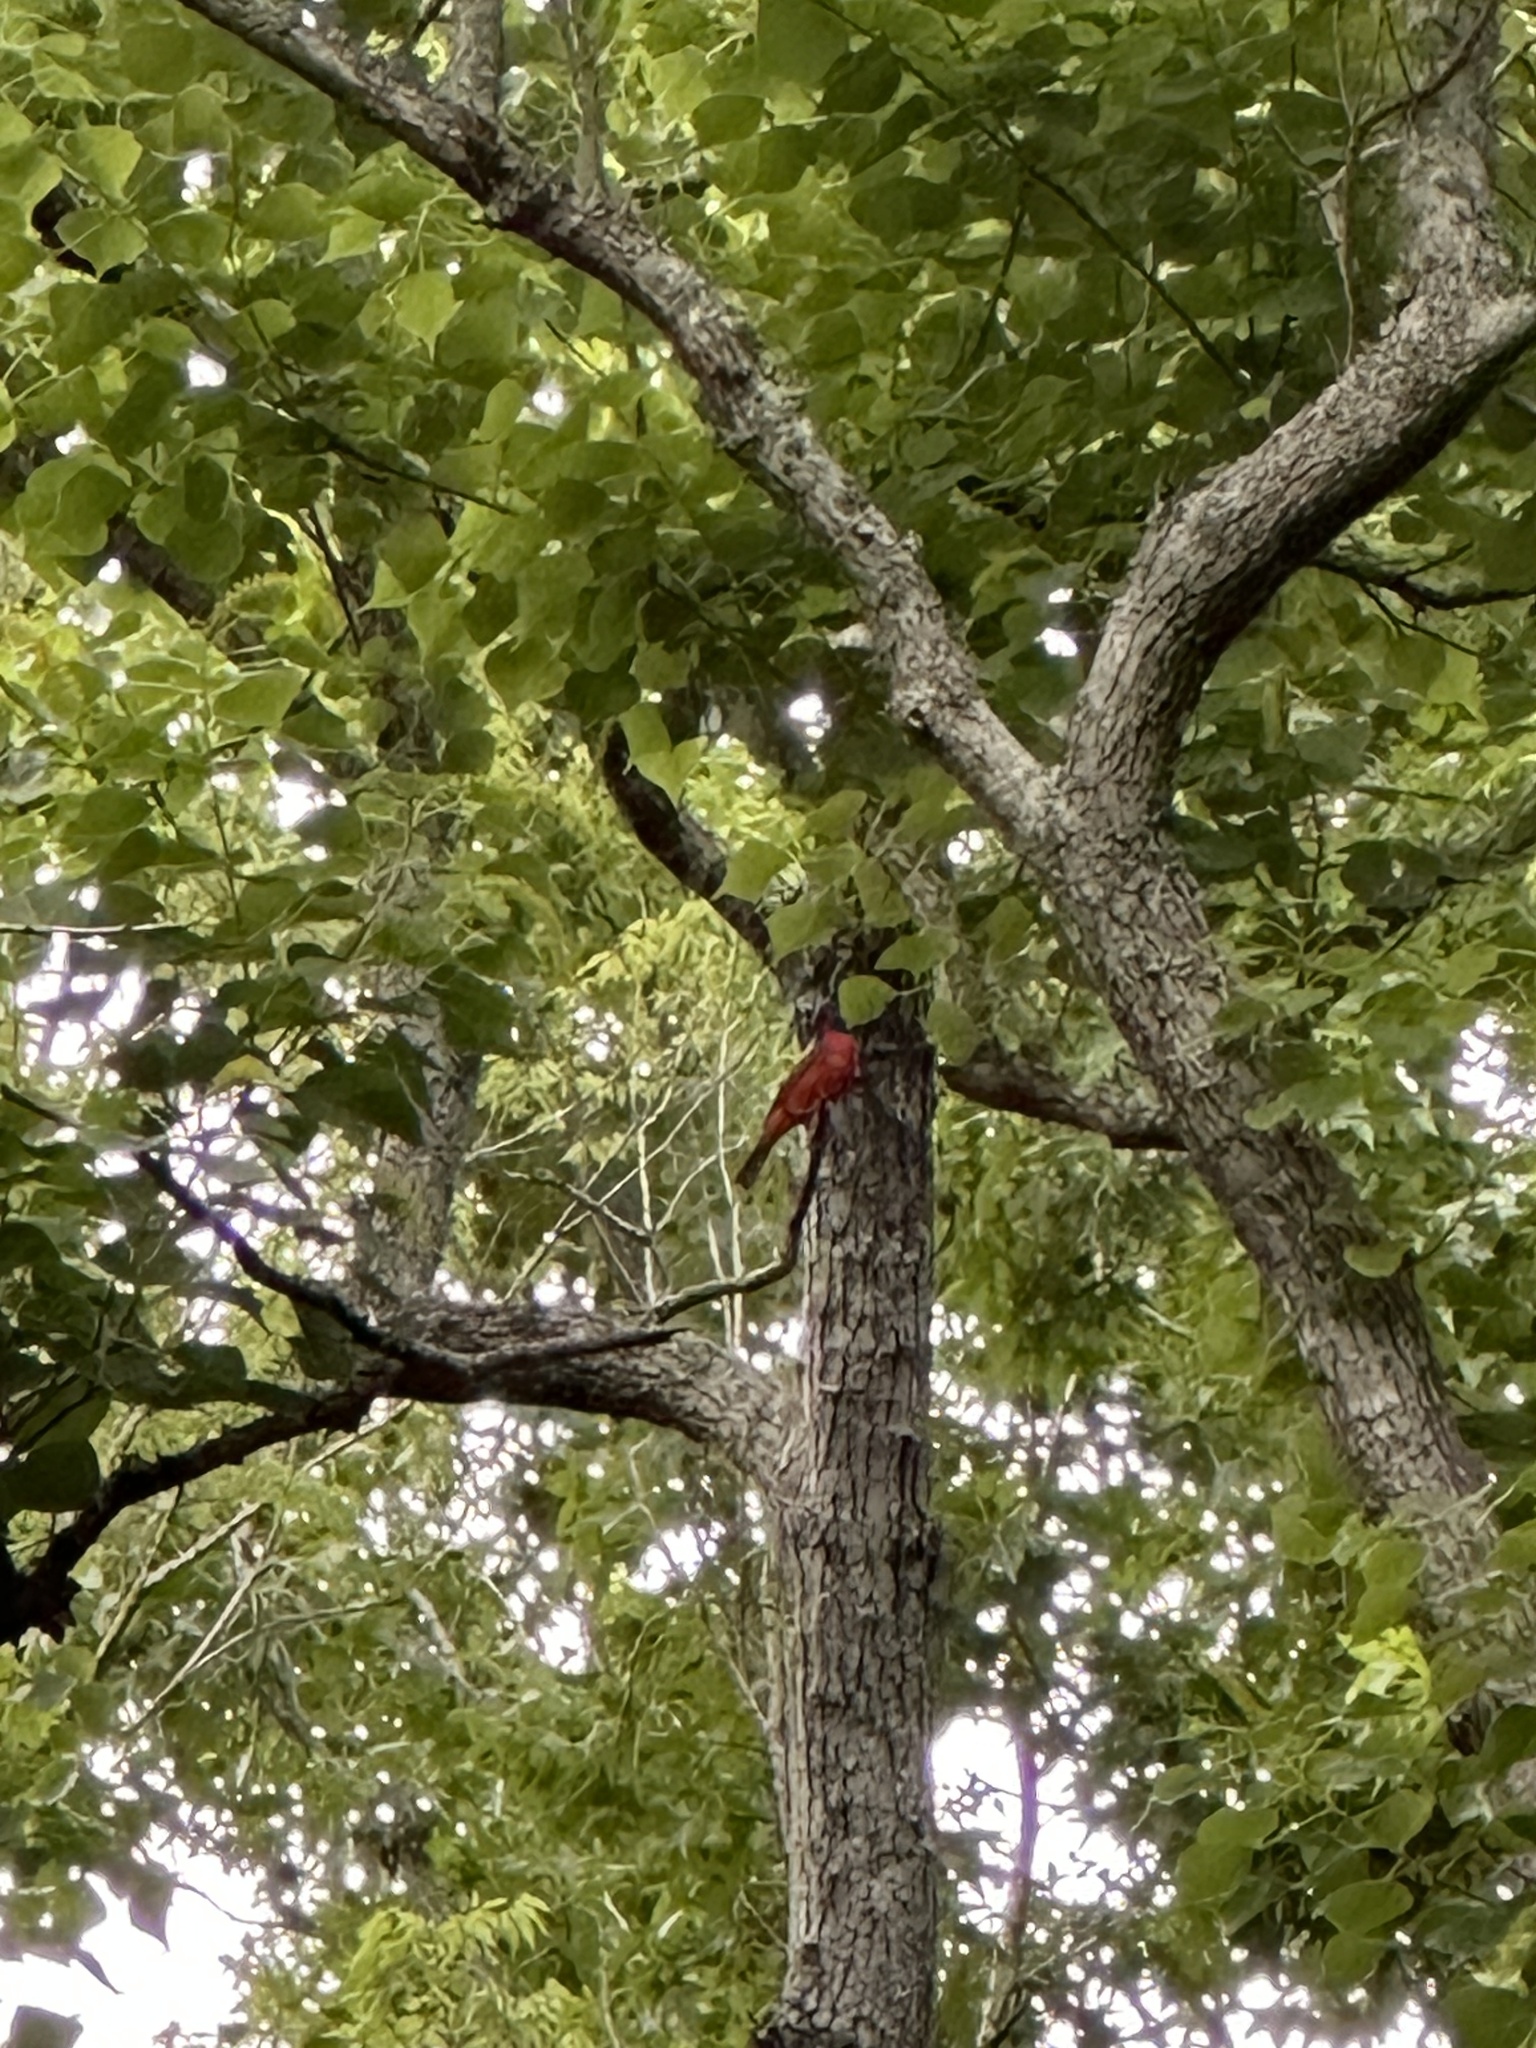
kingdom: Animalia
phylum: Chordata
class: Aves
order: Passeriformes
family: Cardinalidae
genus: Passerina
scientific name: Passerina ciris
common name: Painted bunting
